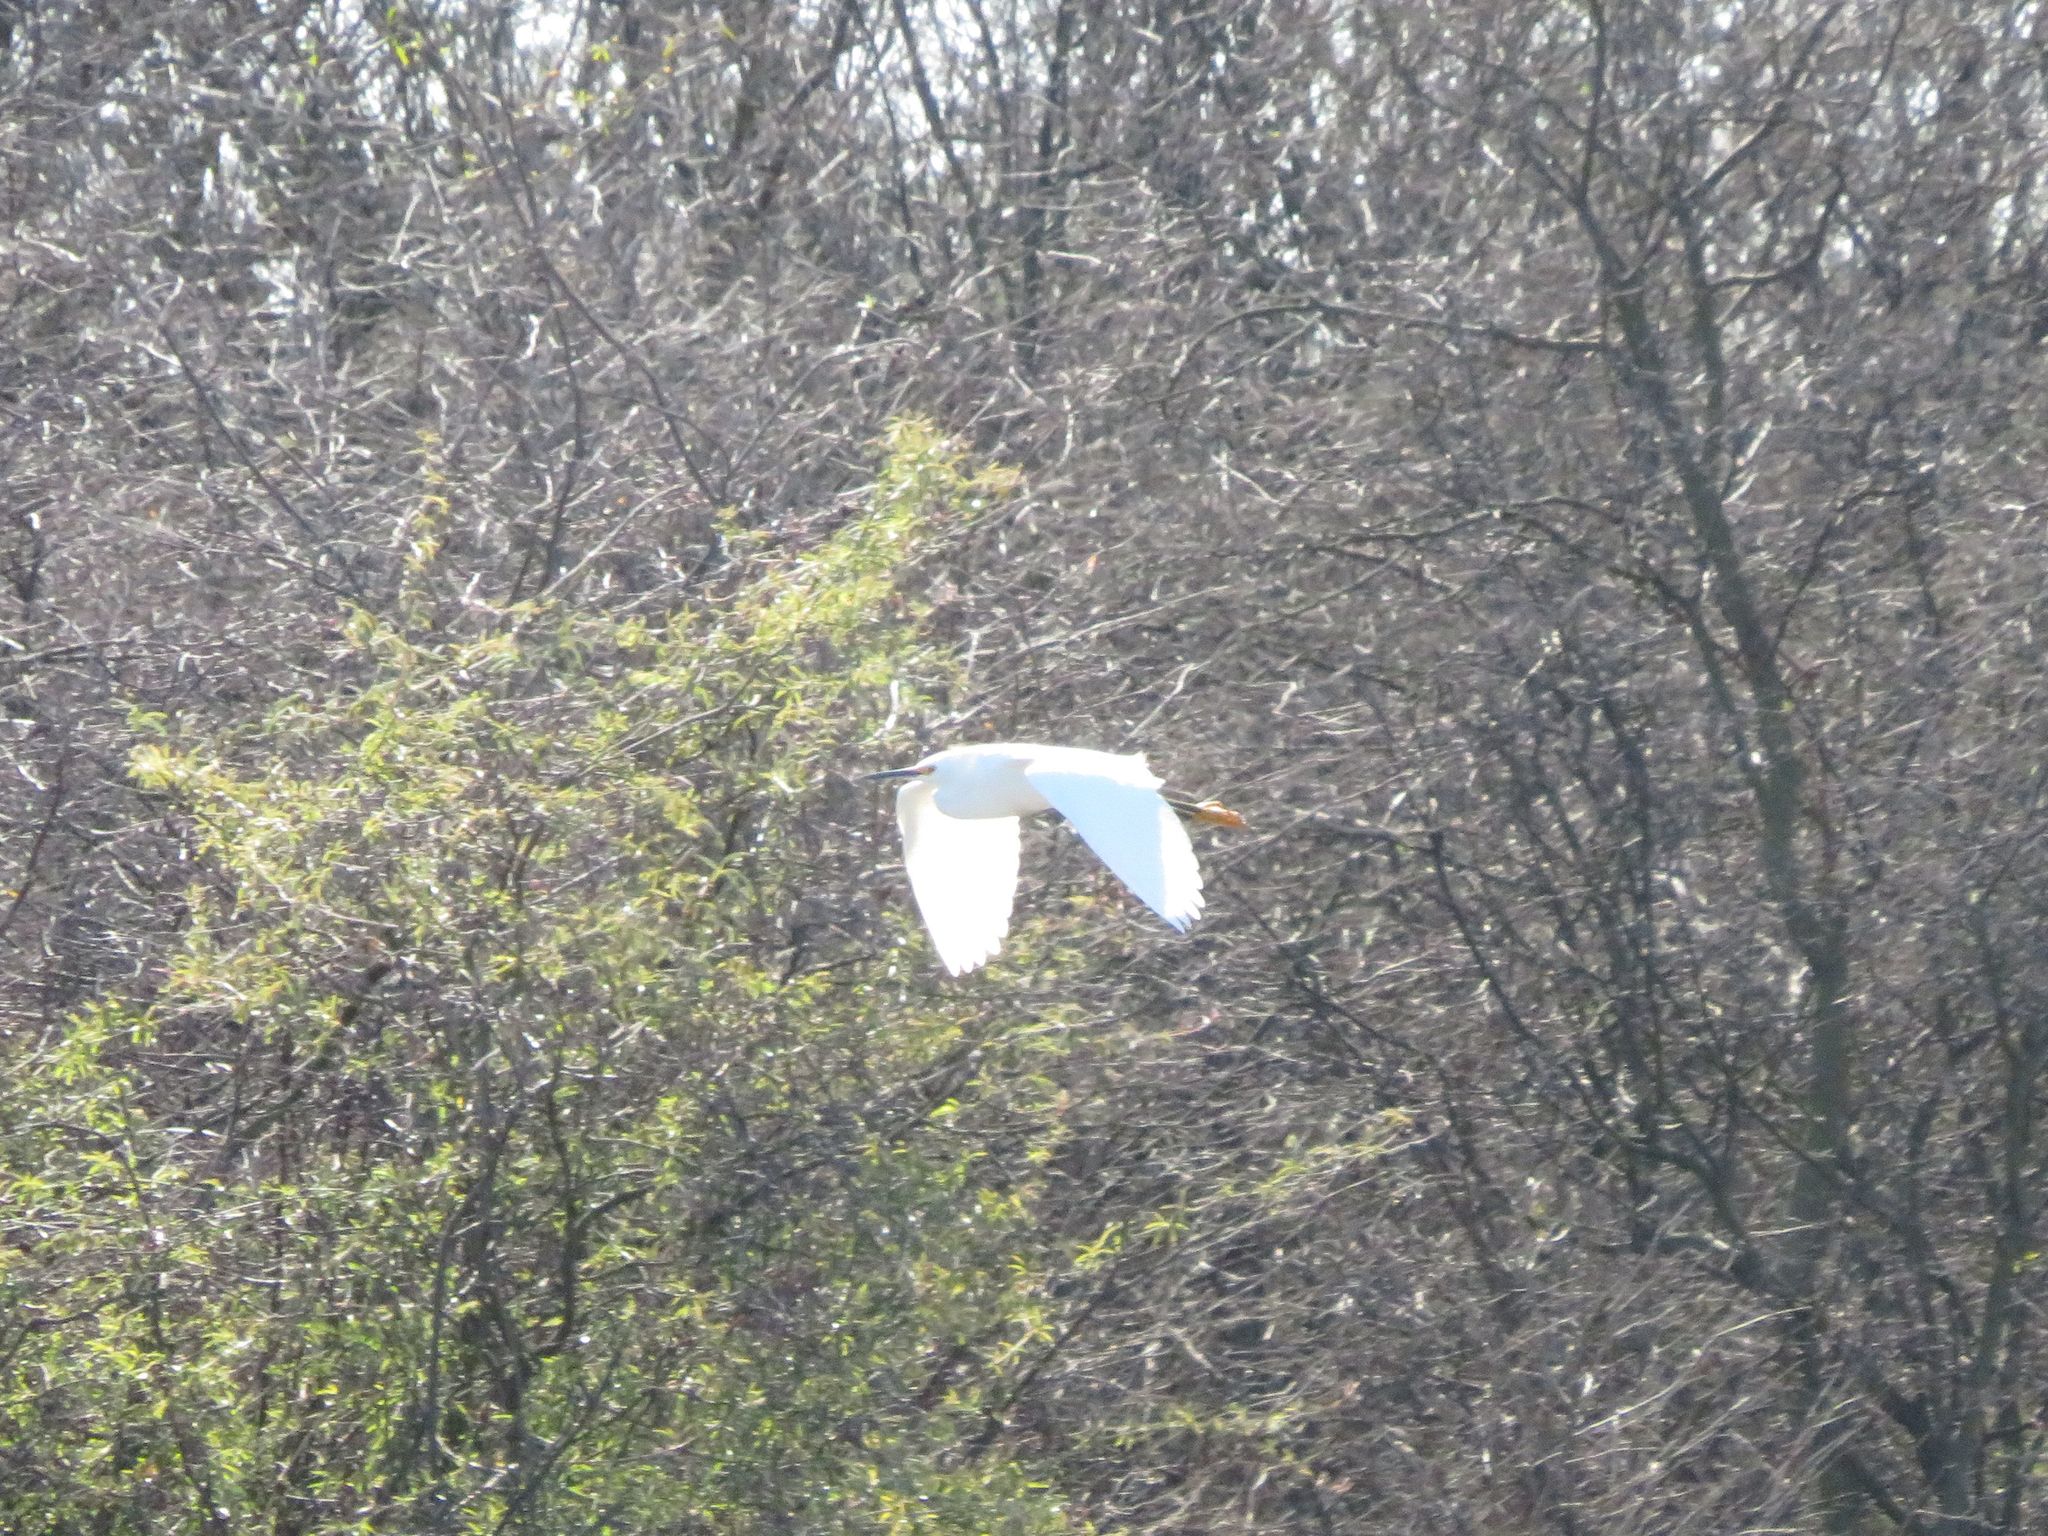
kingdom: Animalia
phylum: Chordata
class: Aves
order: Pelecaniformes
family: Ardeidae
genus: Egretta
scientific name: Egretta thula
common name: Snowy egret
